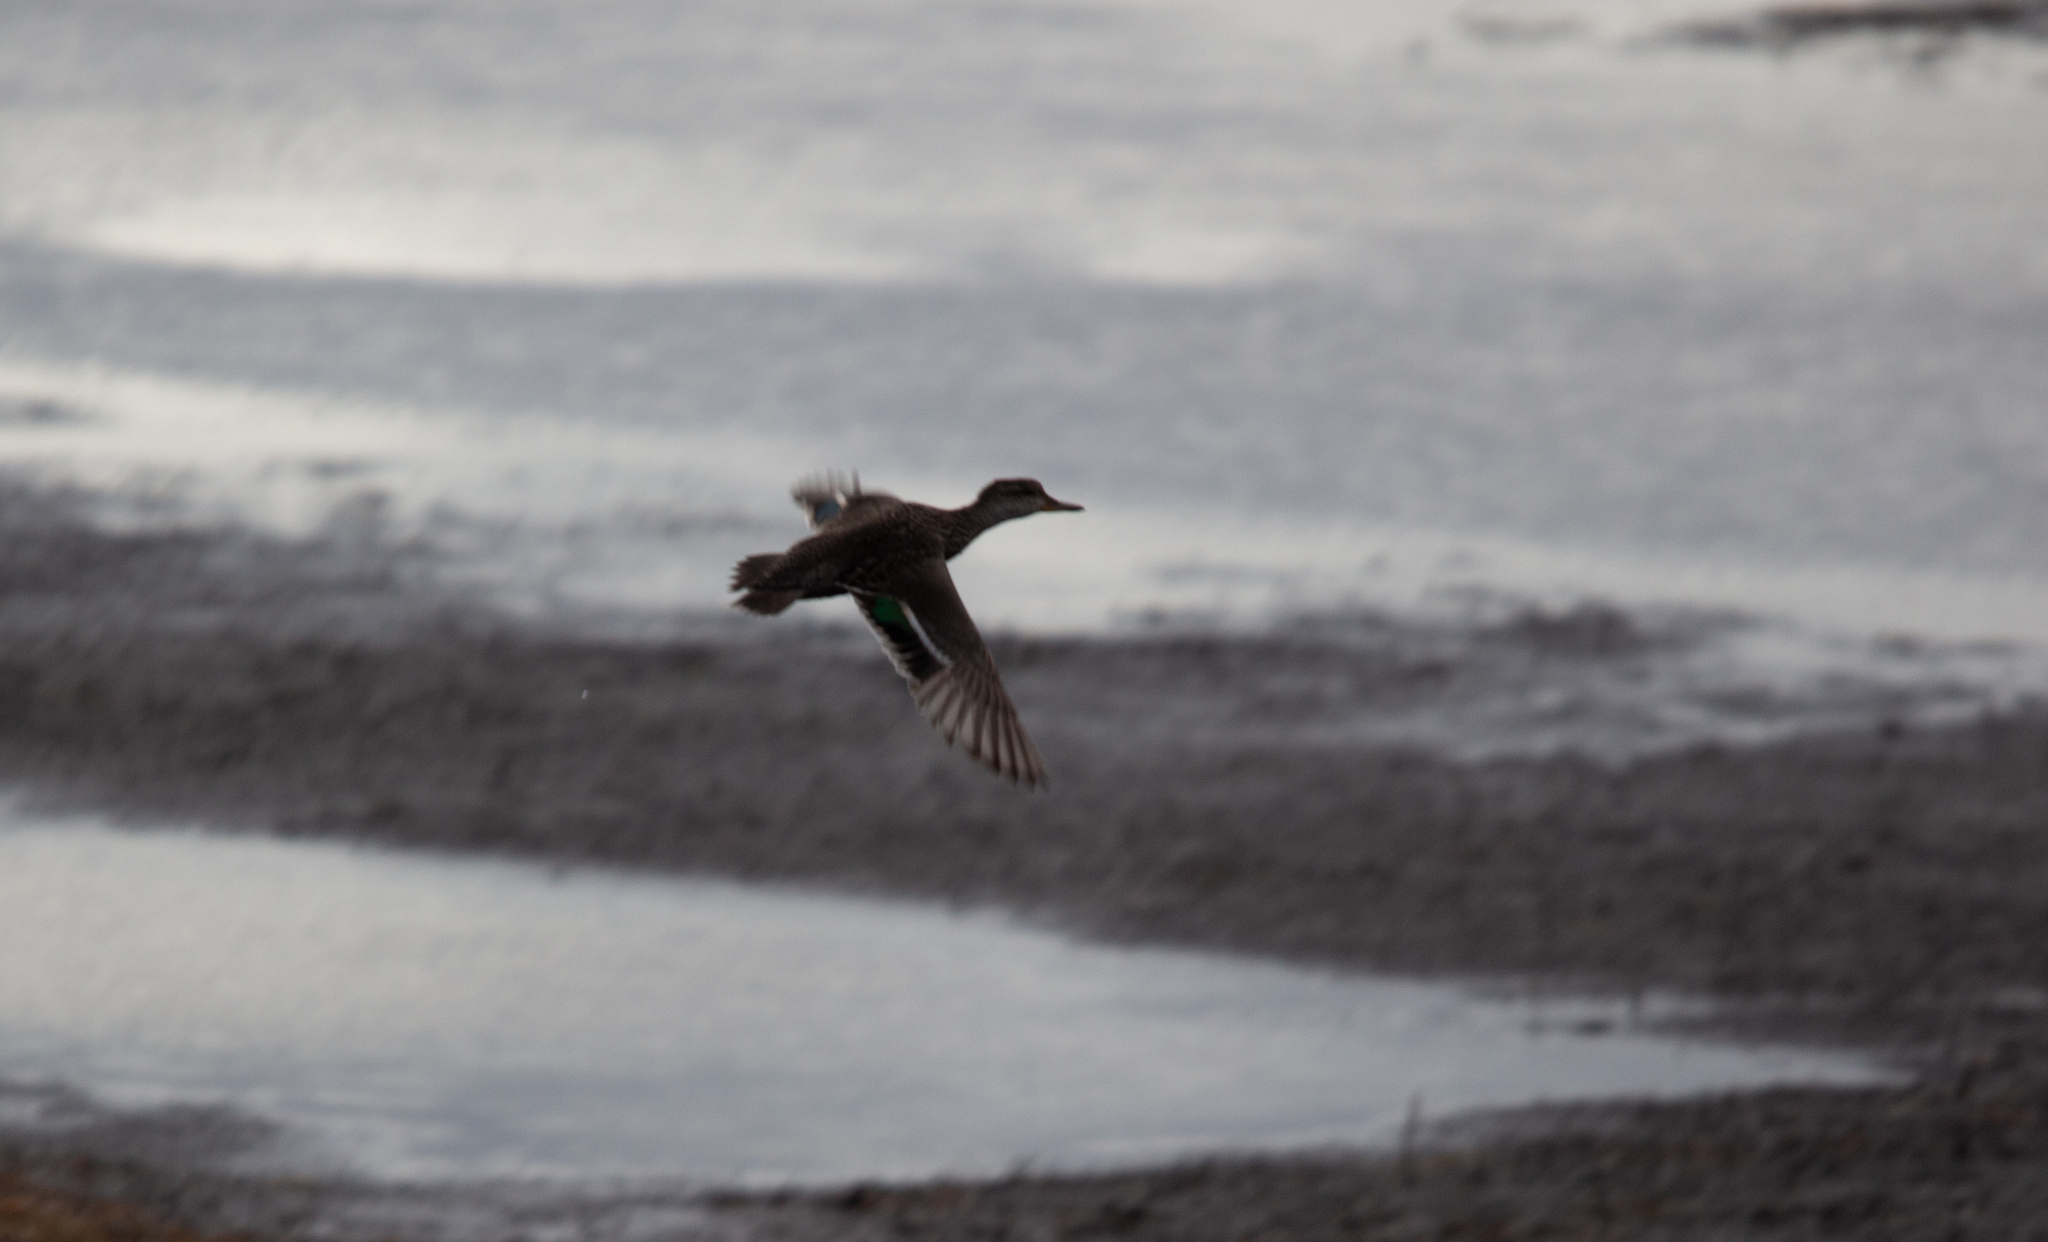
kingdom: Animalia
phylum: Chordata
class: Aves
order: Anseriformes
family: Anatidae
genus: Anas
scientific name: Anas crecca
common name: Eurasian teal
